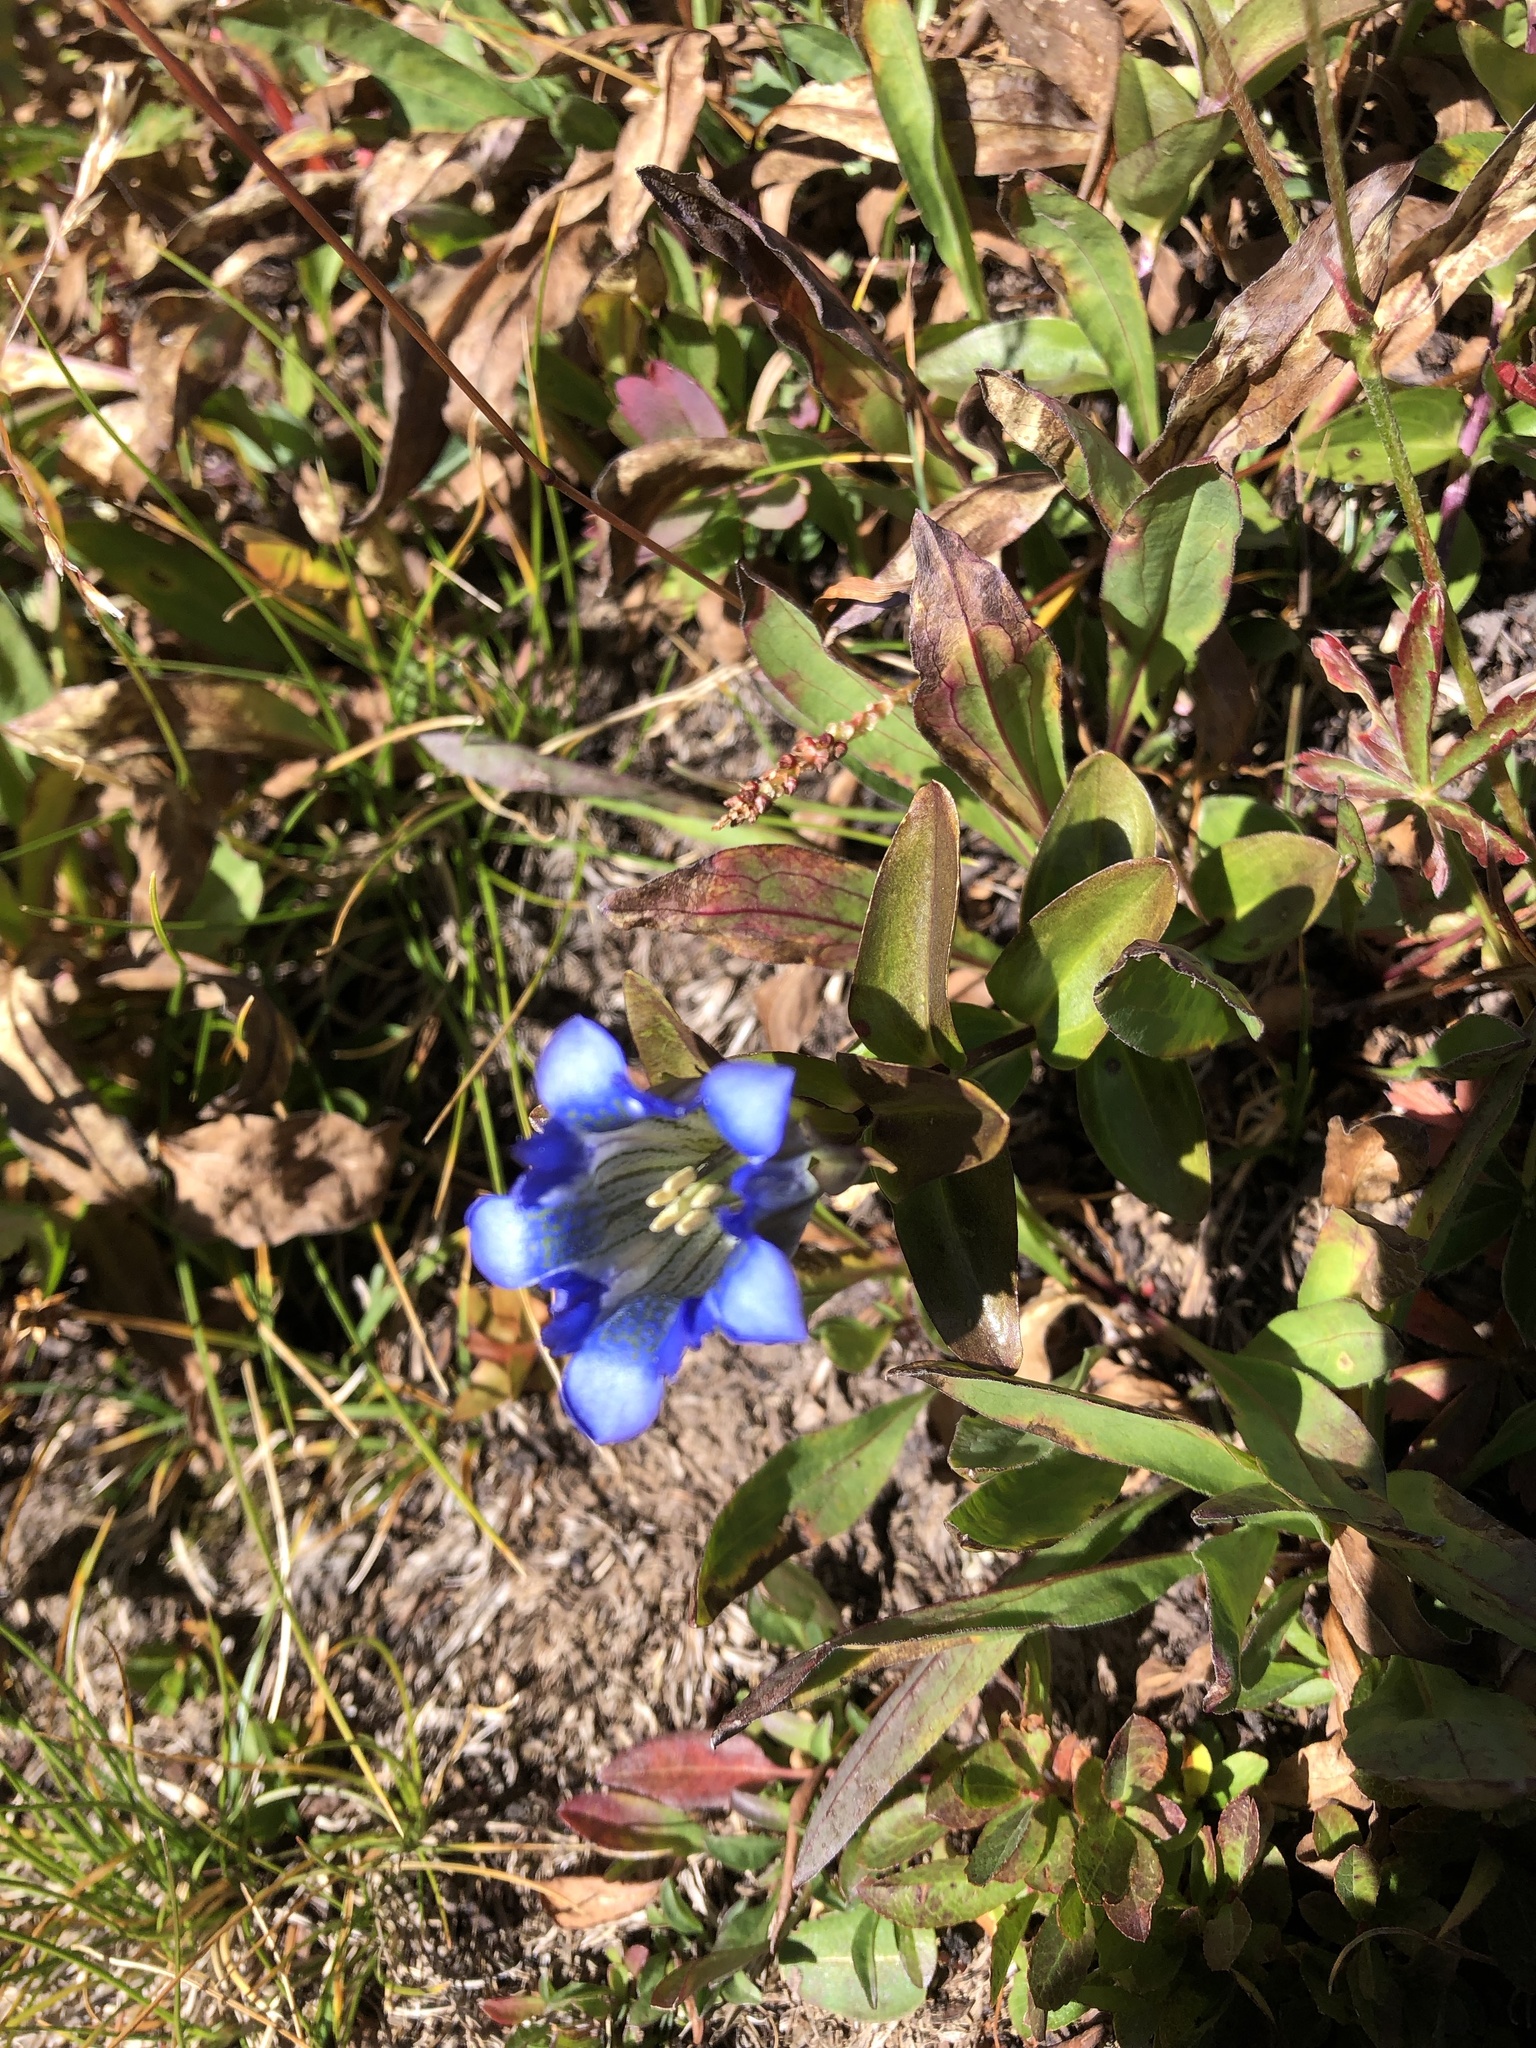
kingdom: Plantae
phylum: Tracheophyta
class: Magnoliopsida
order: Gentianales
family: Gentianaceae
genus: Gentiana
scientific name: Gentiana parryi
